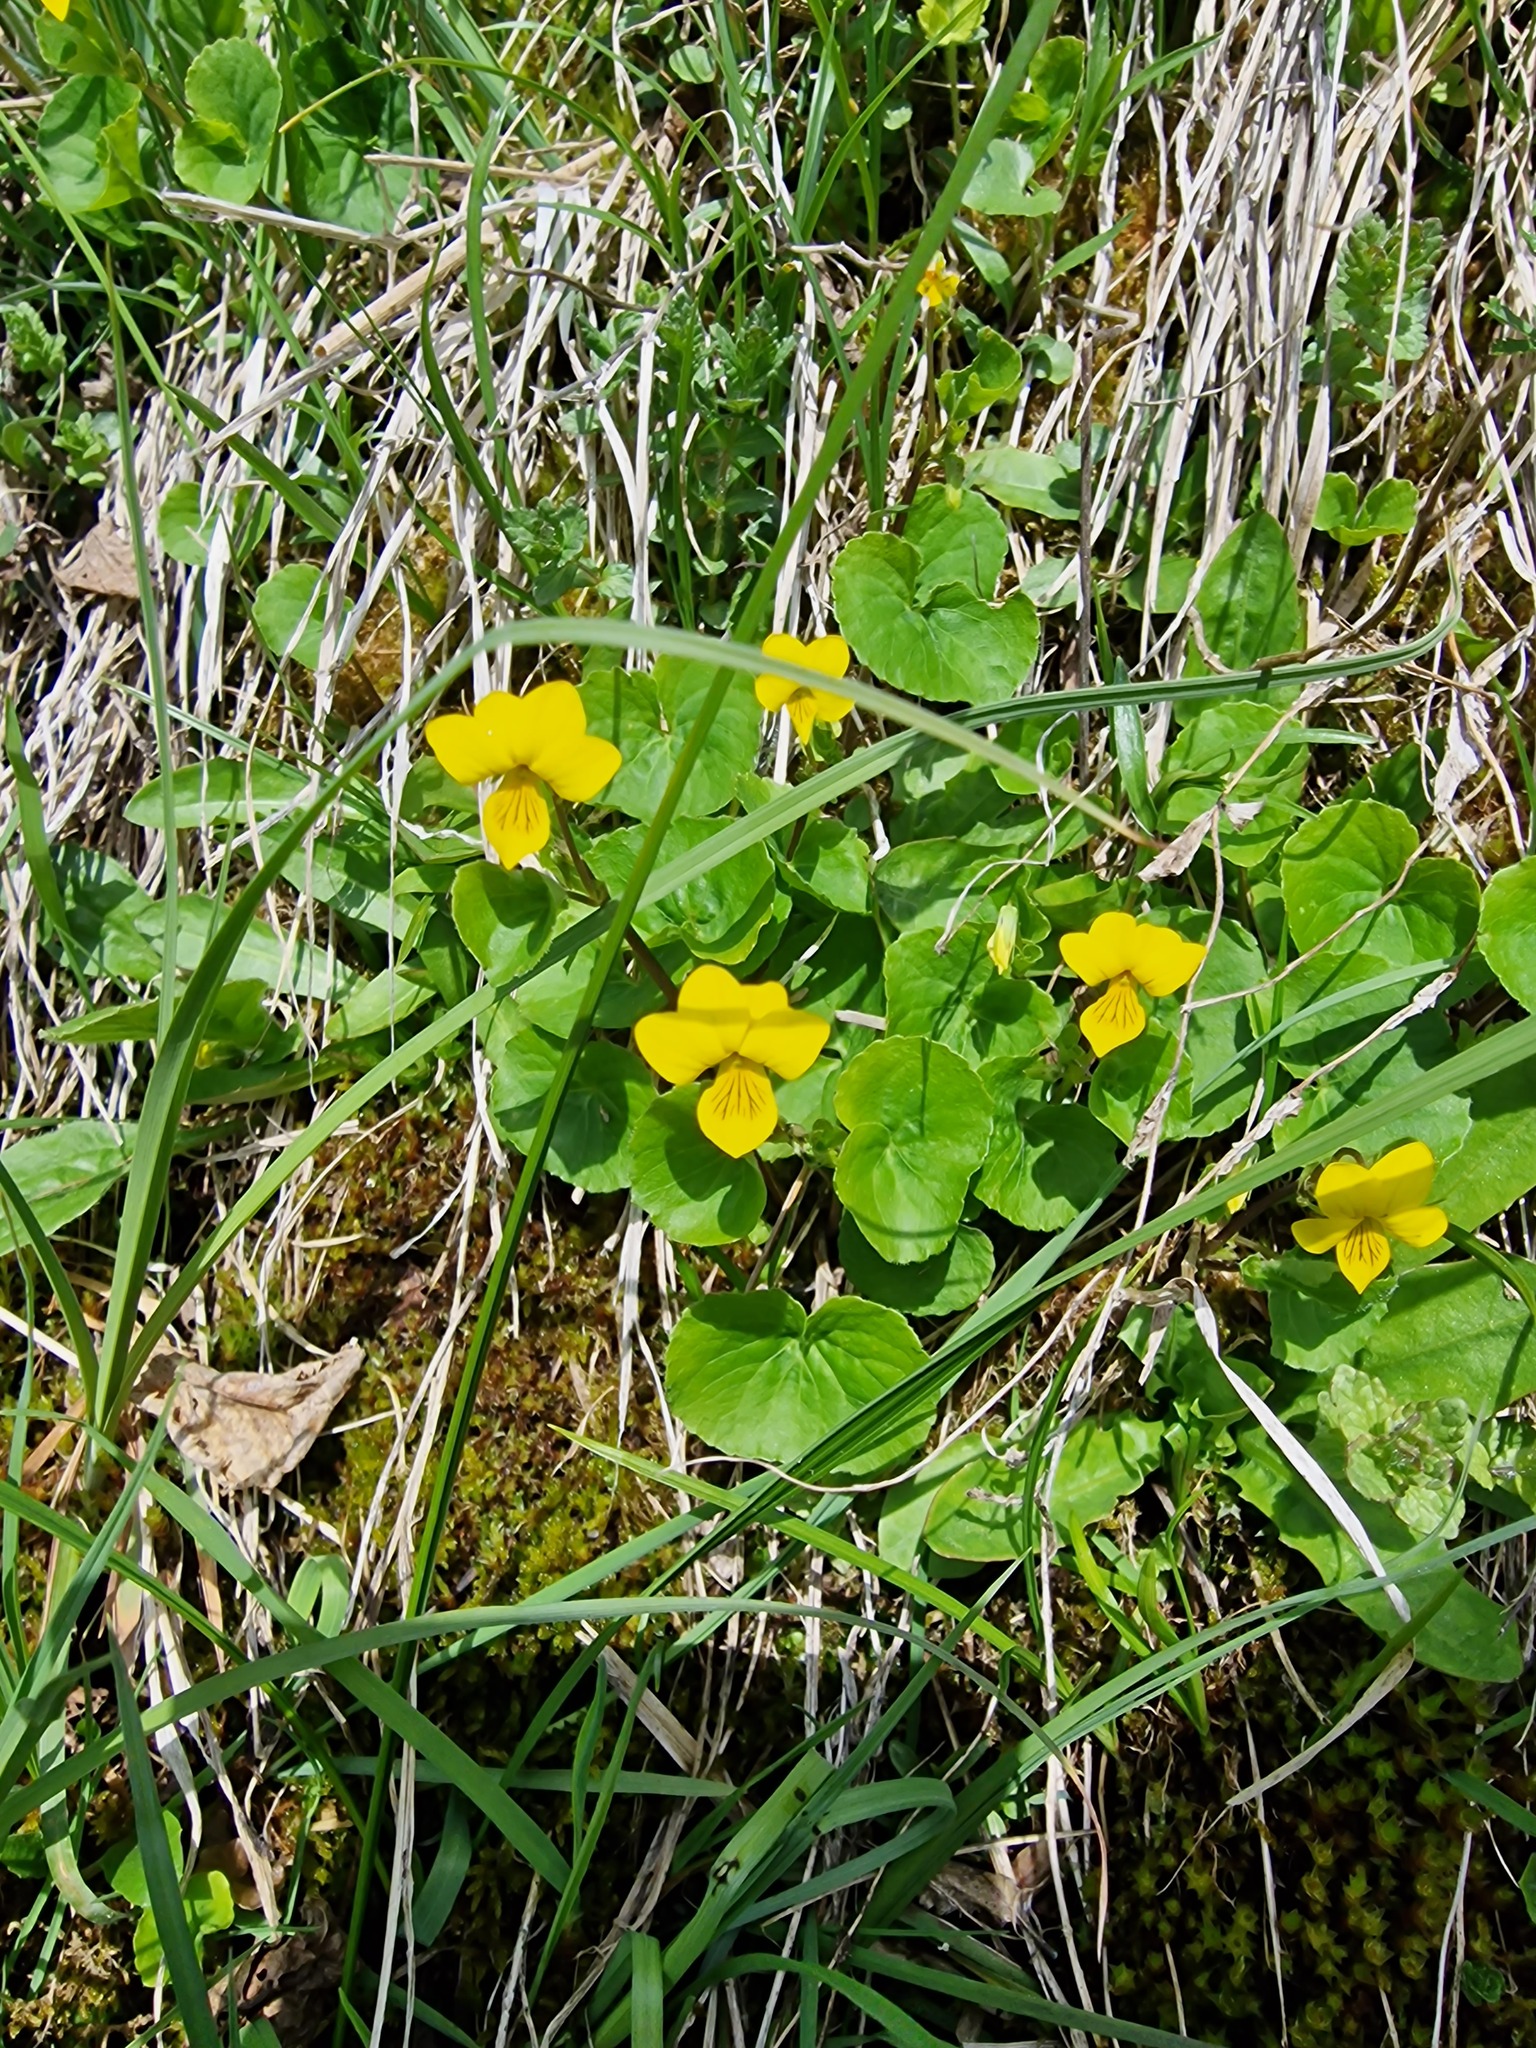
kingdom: Plantae
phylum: Tracheophyta
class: Magnoliopsida
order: Malpighiales
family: Violaceae
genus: Viola
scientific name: Viola biflora
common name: Alpine yellow violet
